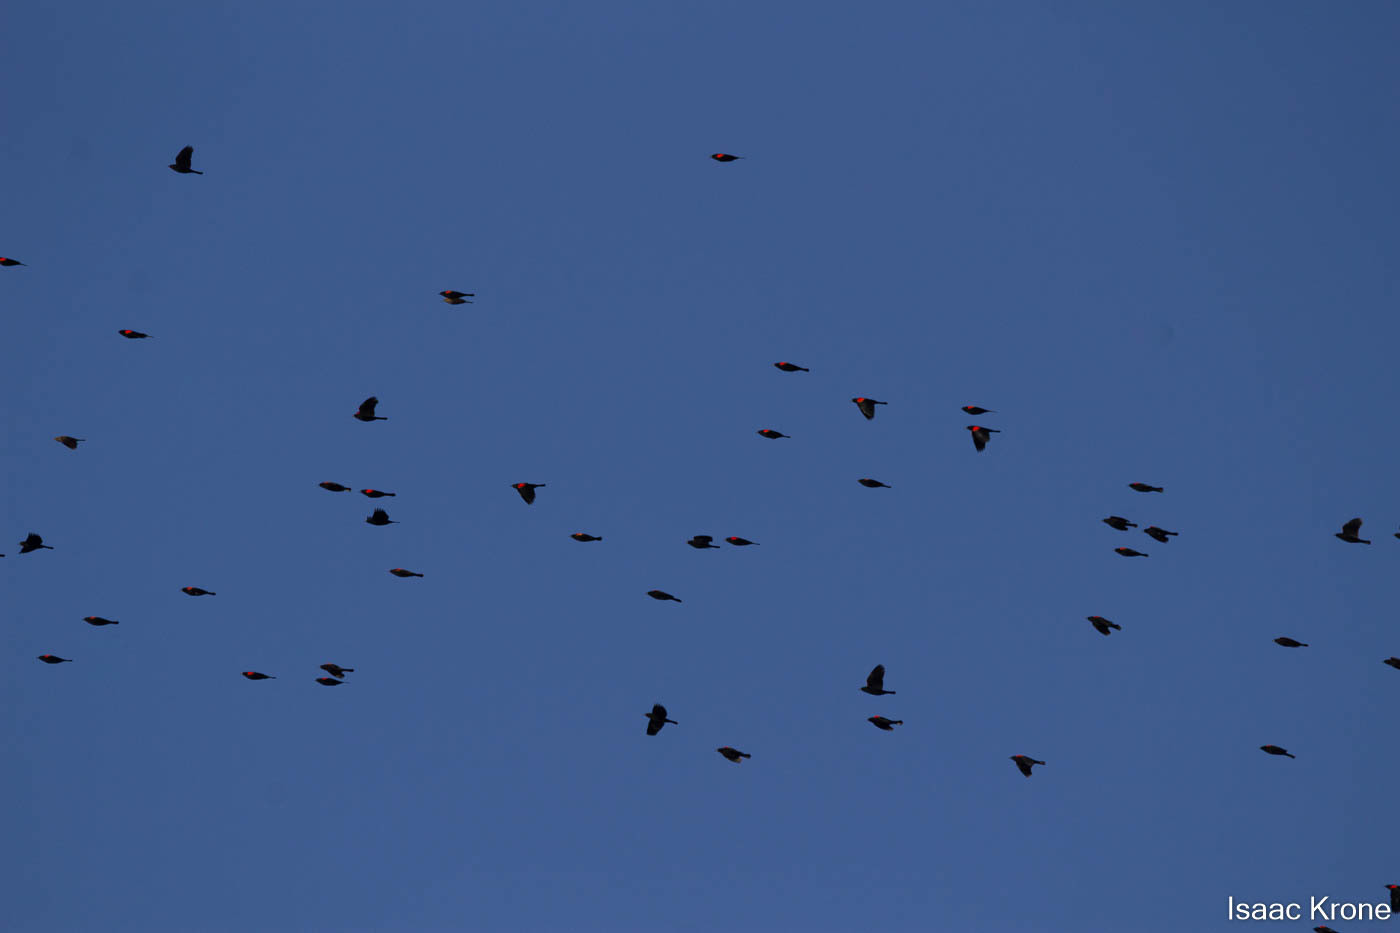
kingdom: Animalia
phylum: Chordata
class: Aves
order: Passeriformes
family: Icteridae
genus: Agelaius
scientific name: Agelaius phoeniceus
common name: Red-winged blackbird
